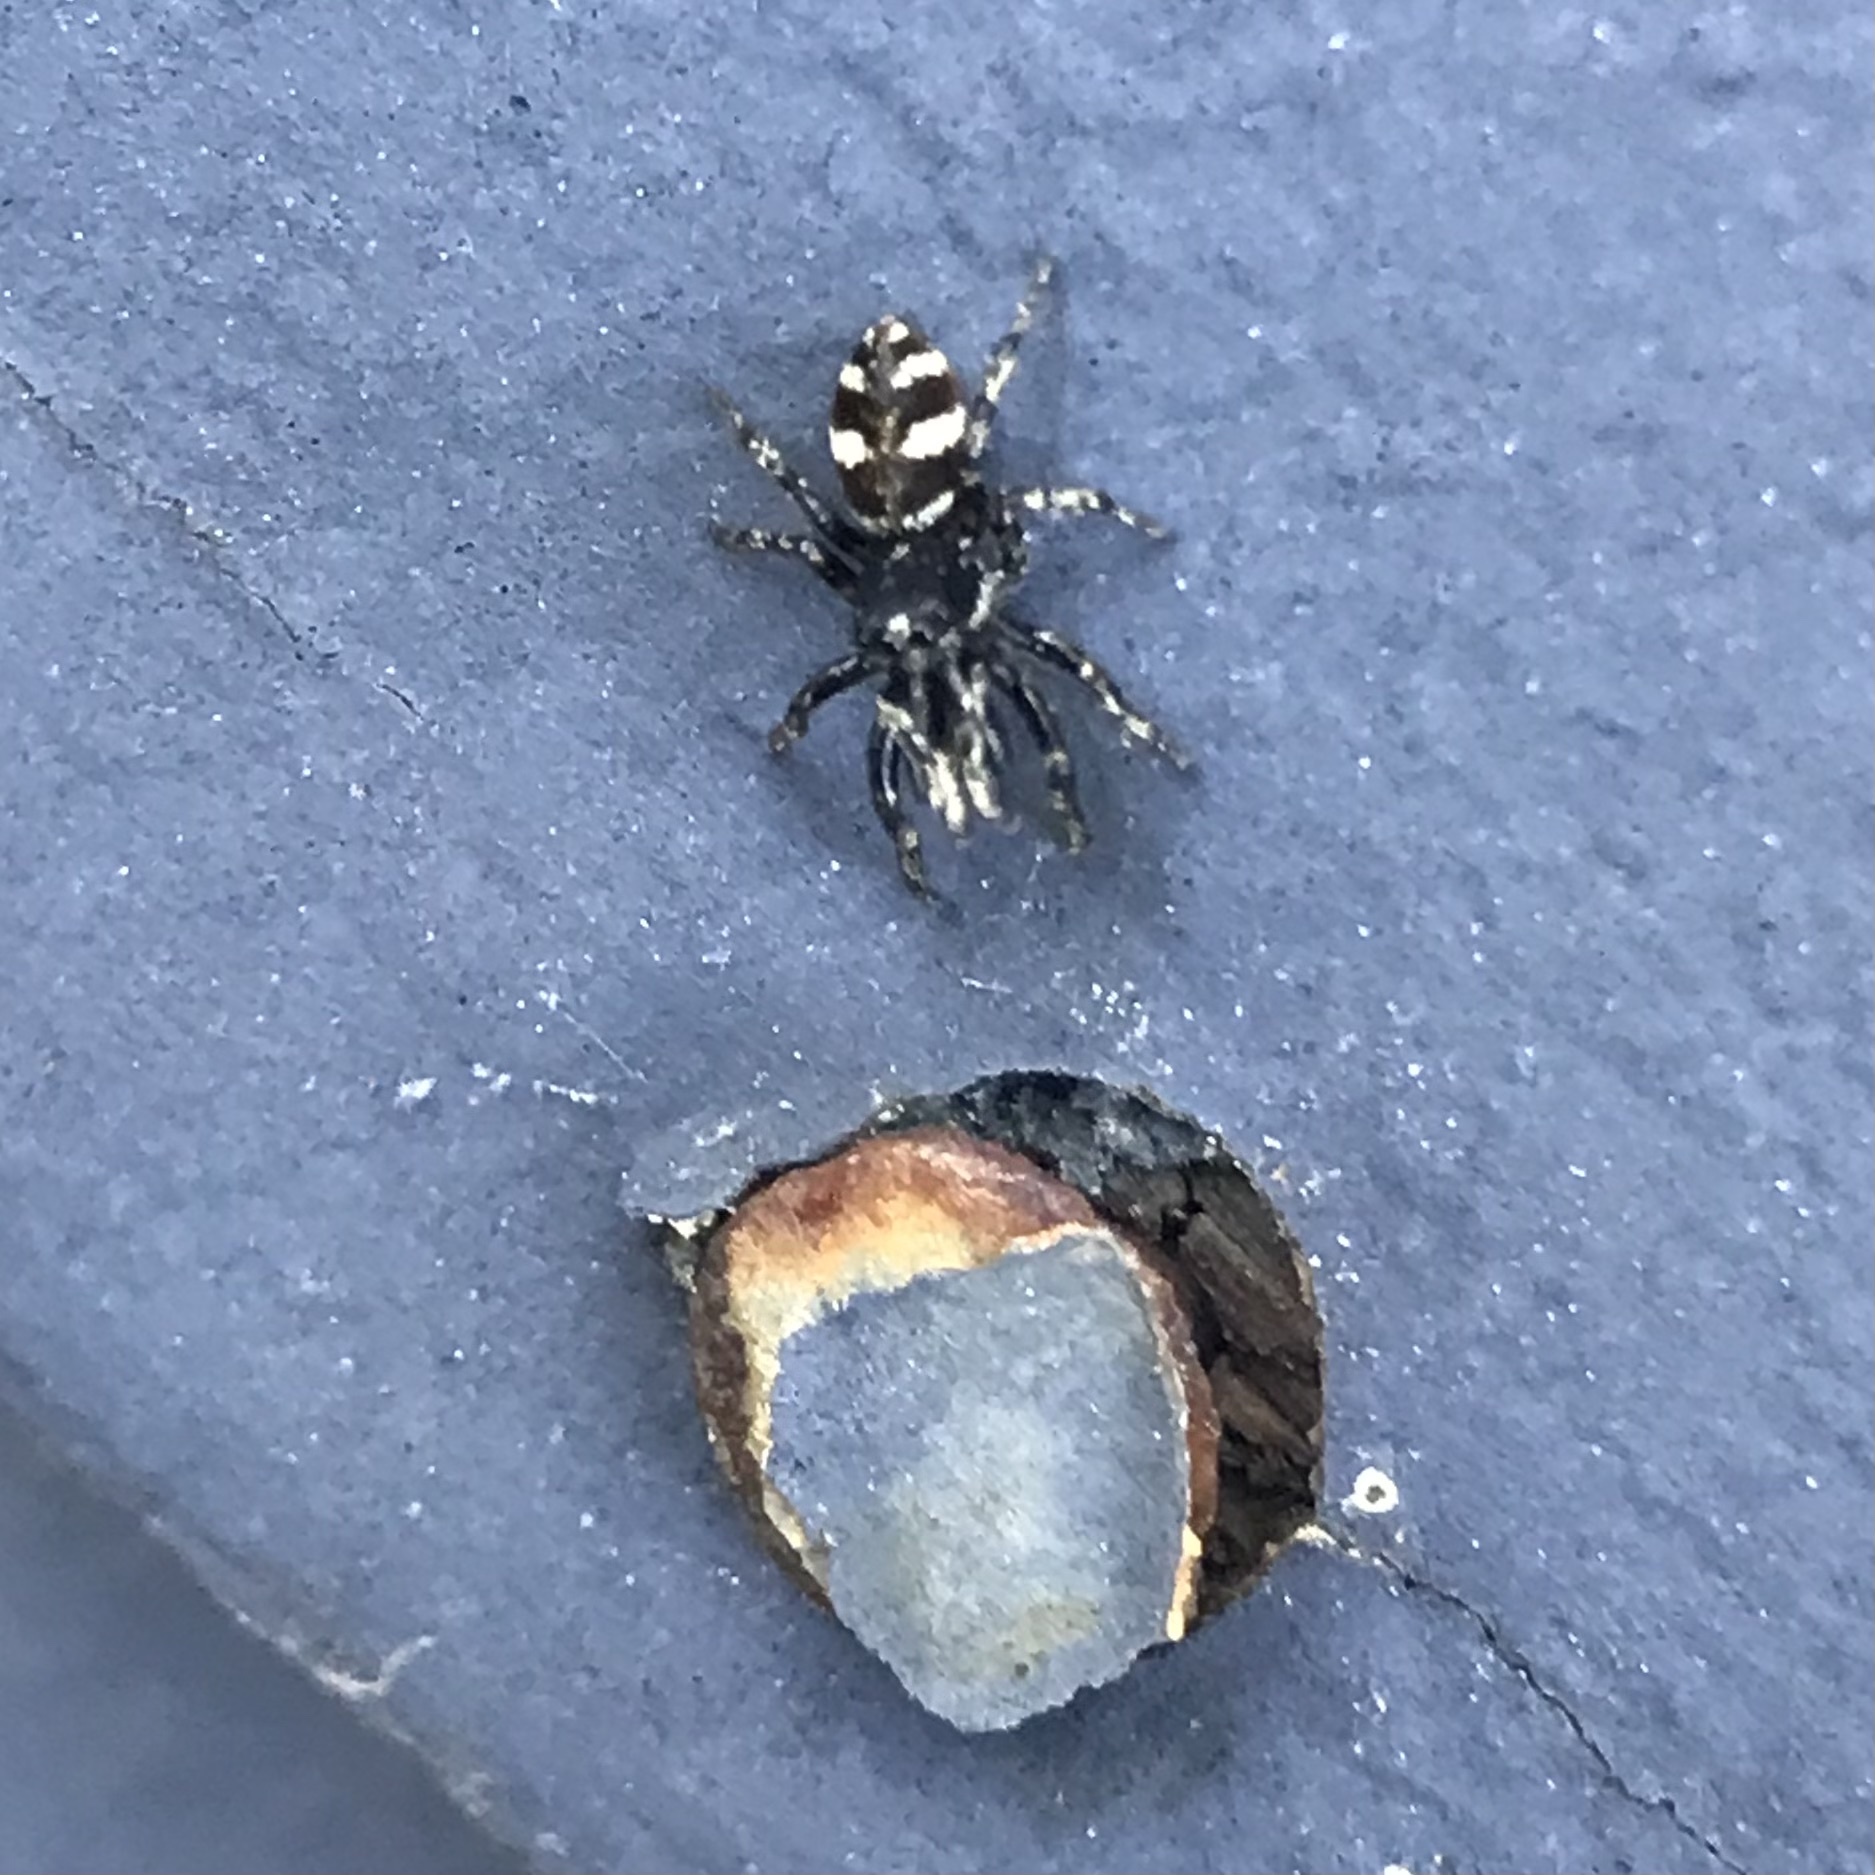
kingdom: Animalia
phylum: Arthropoda
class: Arachnida
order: Araneae
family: Salticidae
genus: Salticus
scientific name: Salticus scenicus
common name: Zebra jumper
